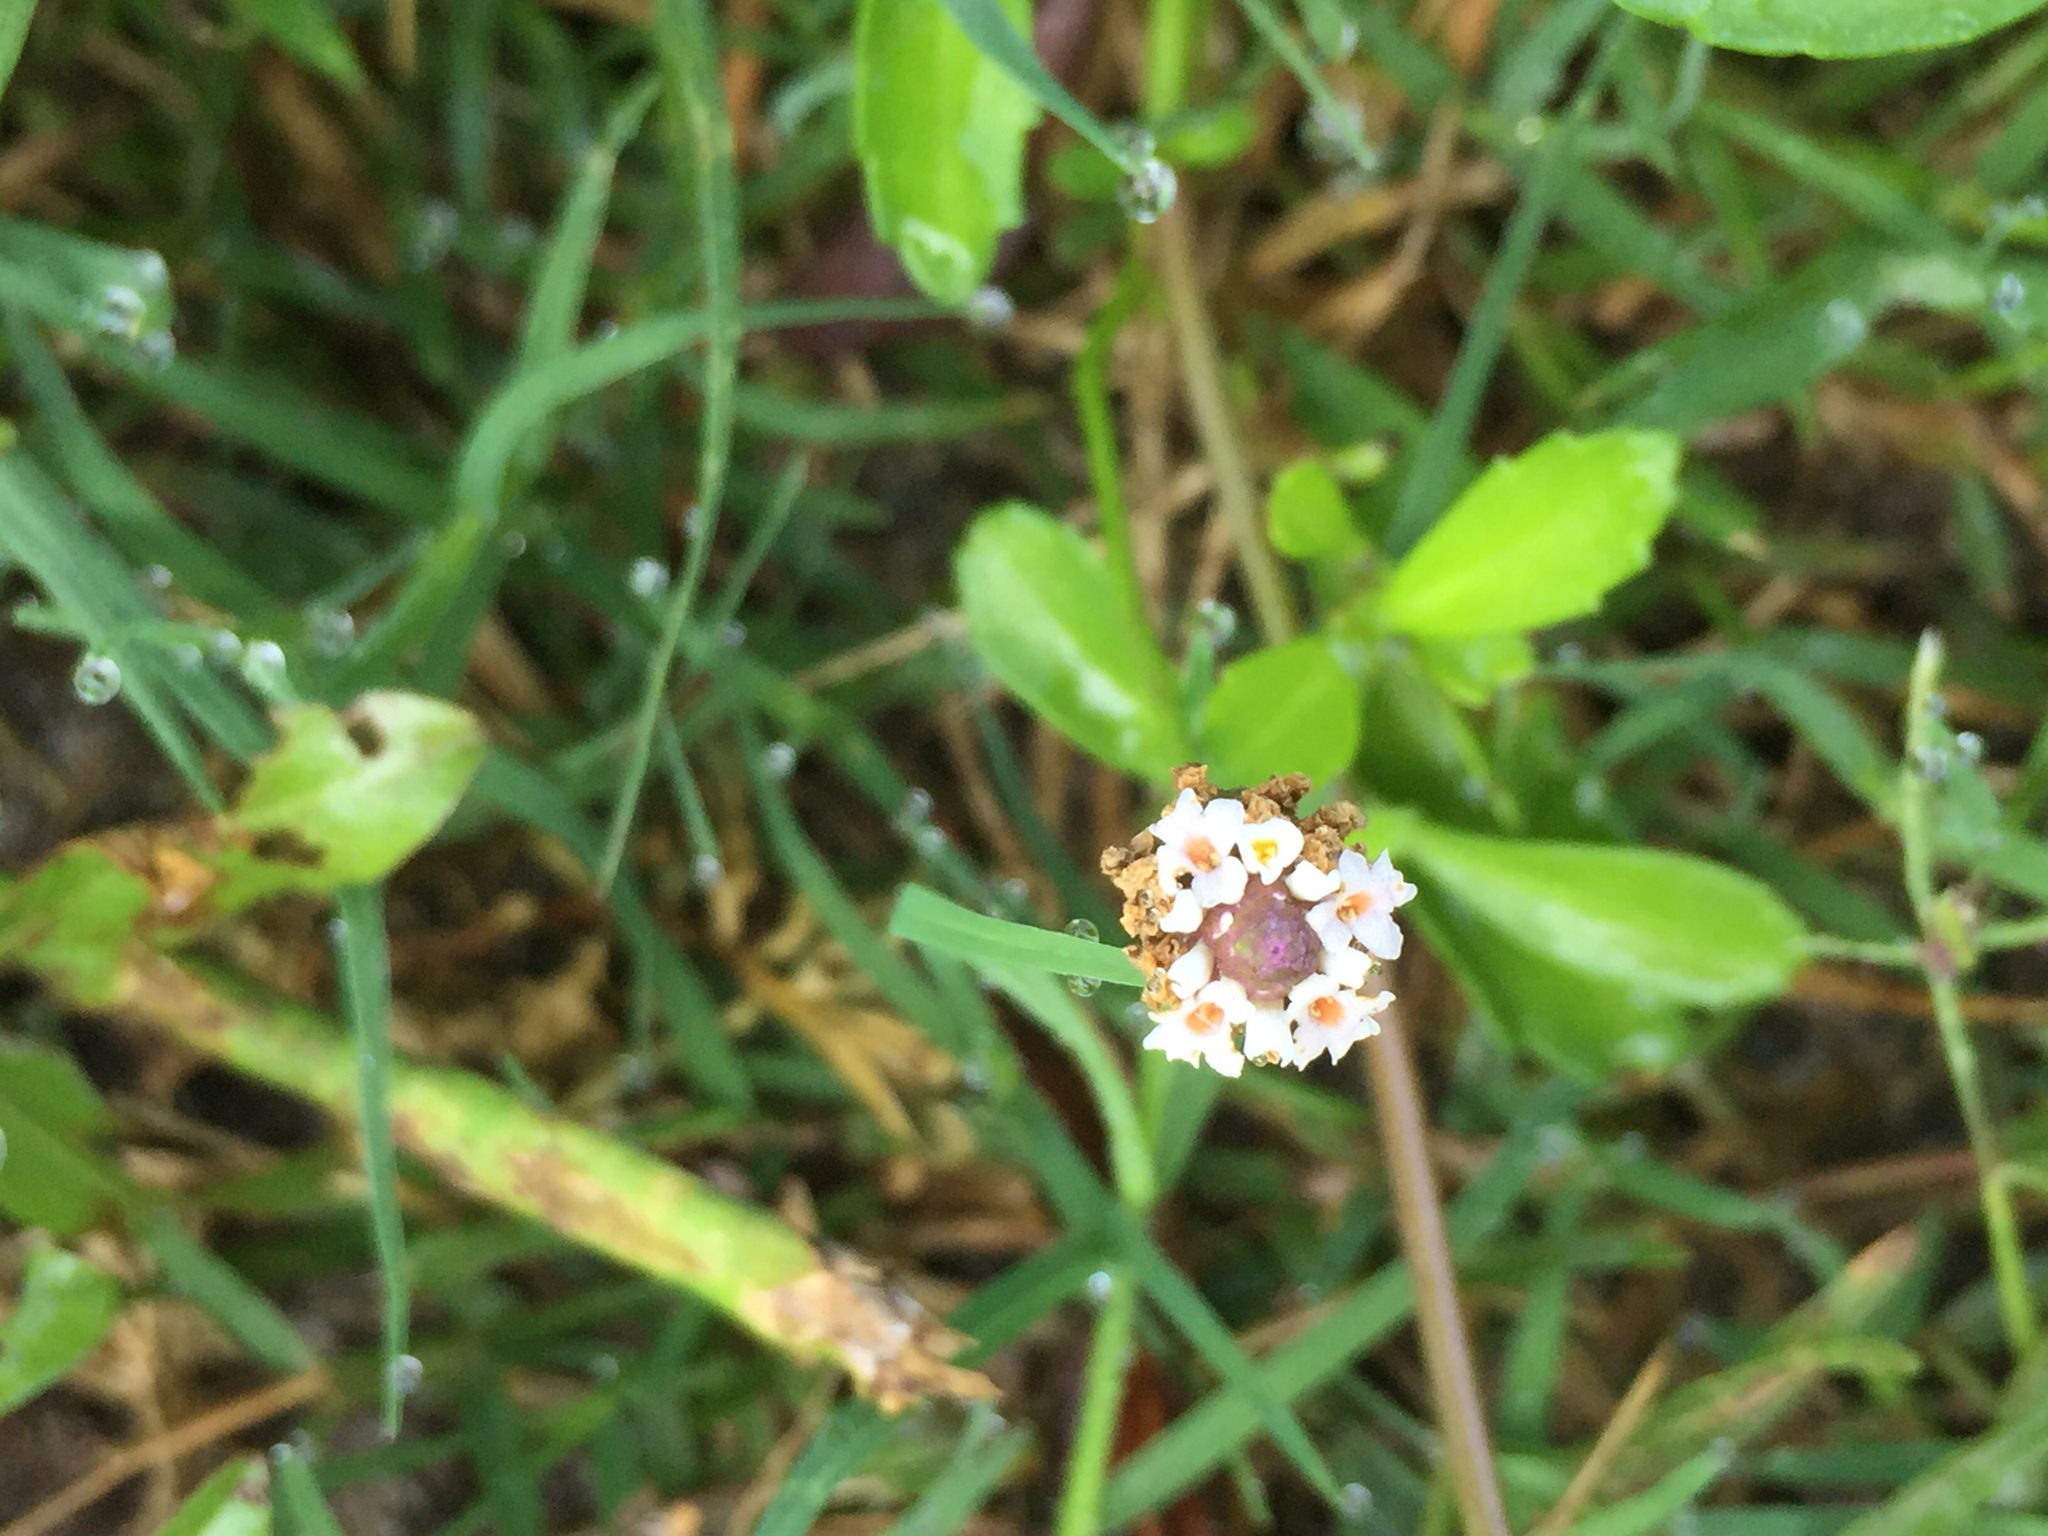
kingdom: Plantae
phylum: Tracheophyta
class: Magnoliopsida
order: Lamiales
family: Verbenaceae
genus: Phyla
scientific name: Phyla nodiflora
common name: Frogfruit
